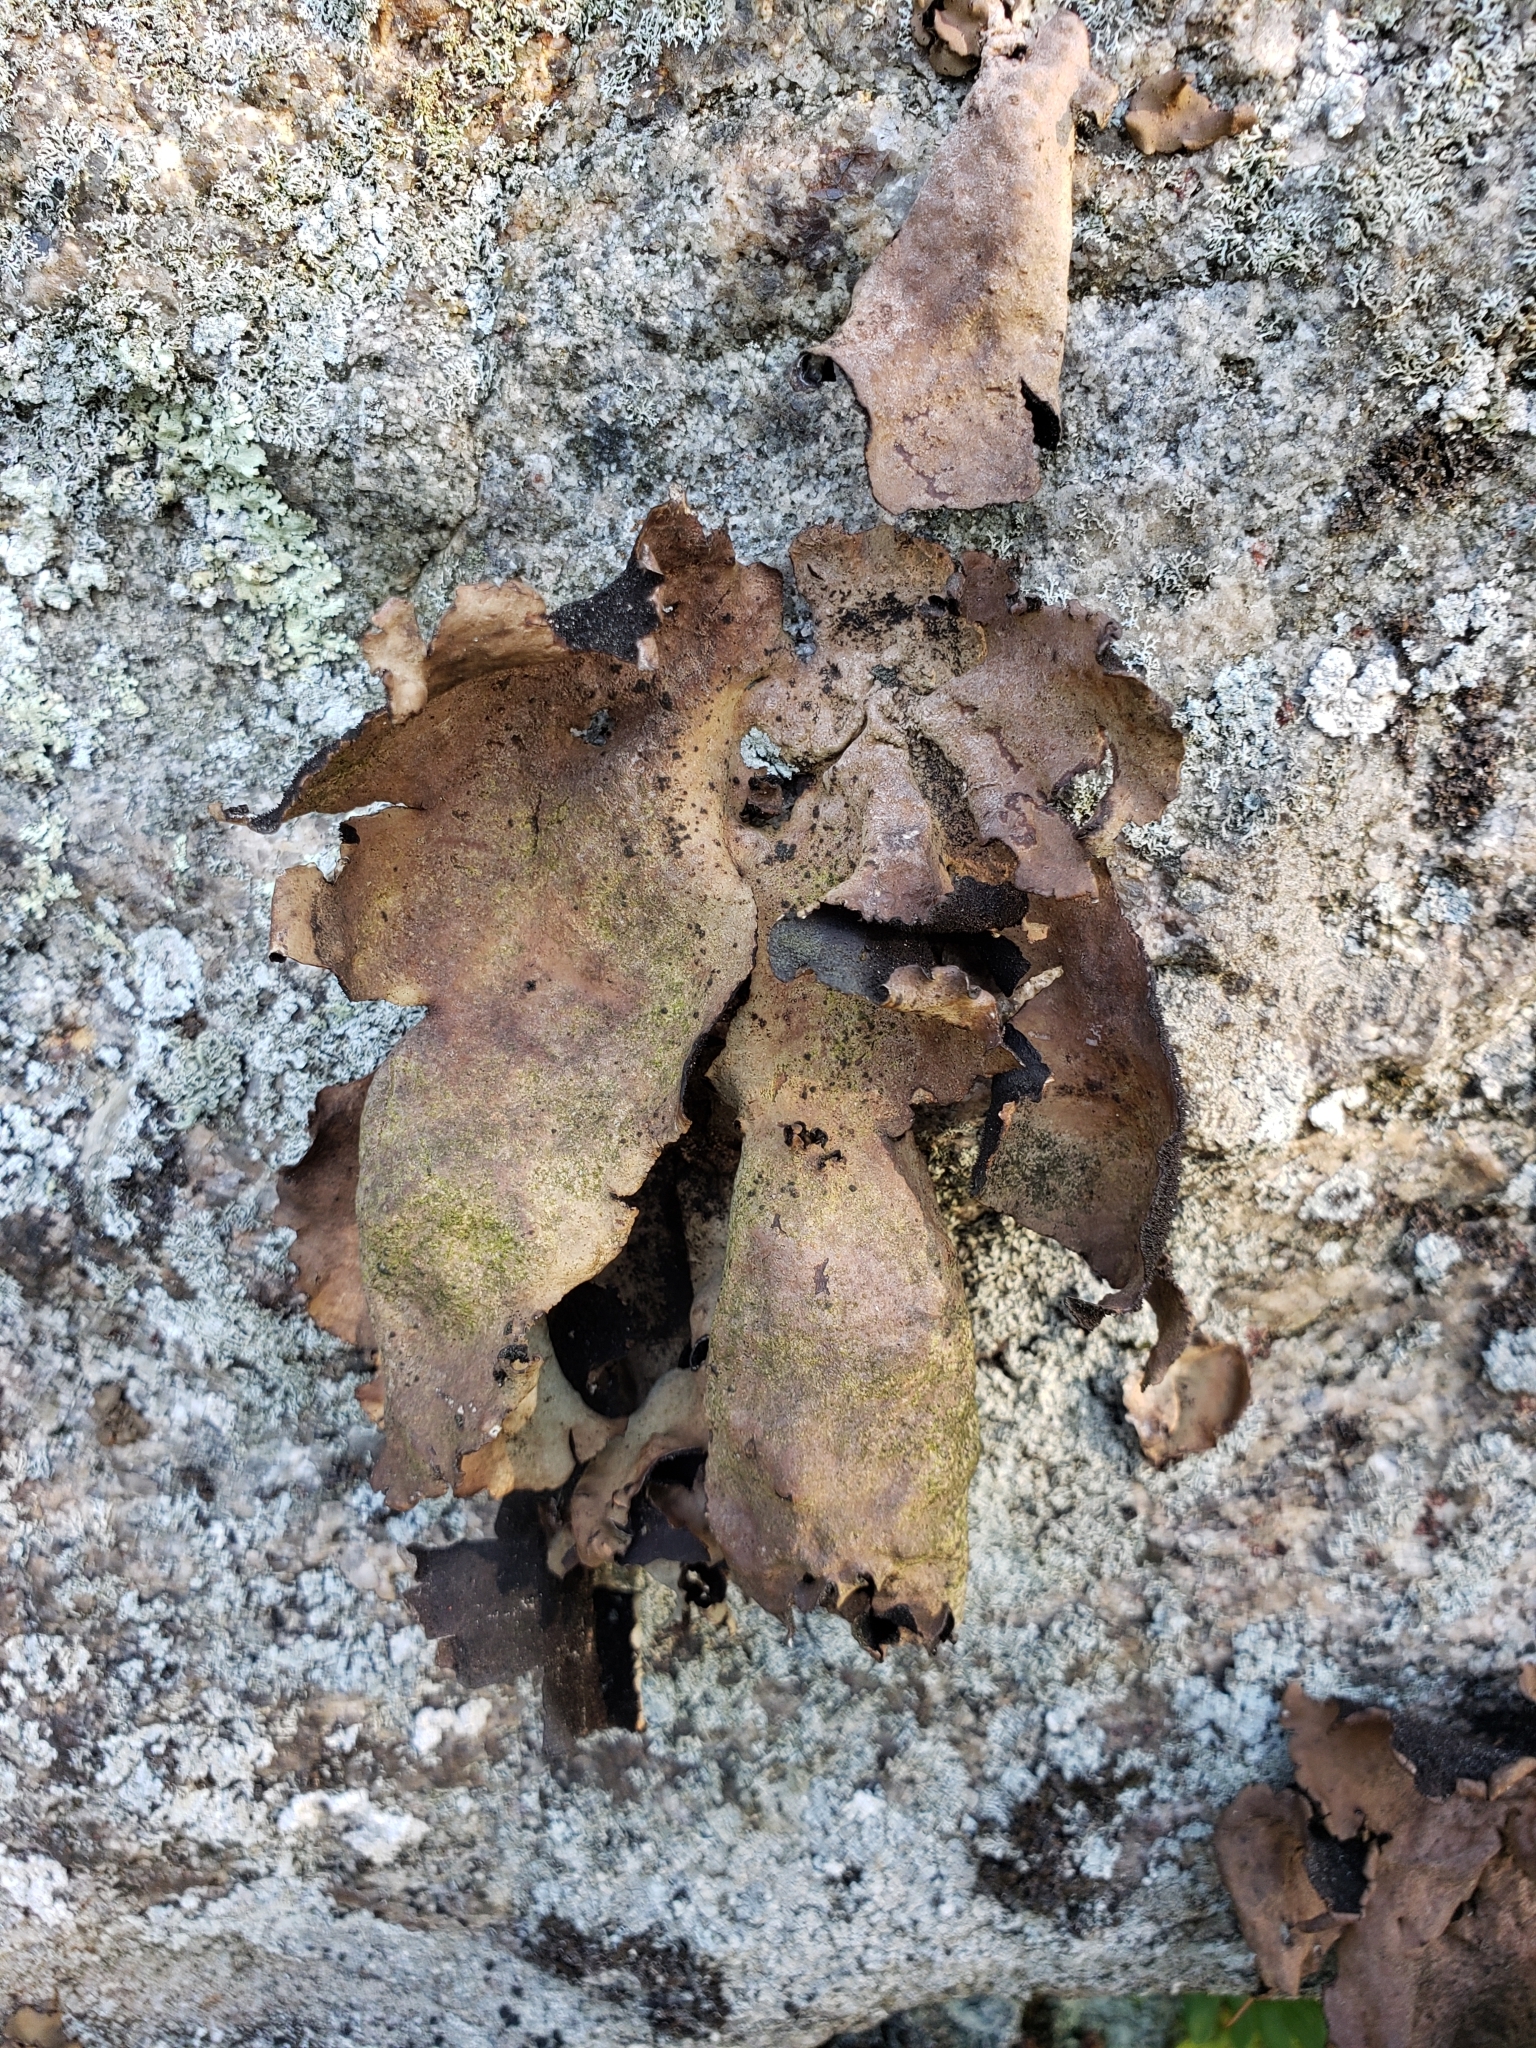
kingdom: Fungi
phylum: Ascomycota
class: Lecanoromycetes
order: Umbilicariales
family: Umbilicariaceae
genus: Umbilicaria
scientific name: Umbilicaria mammulata
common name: Smooth rock tripe
